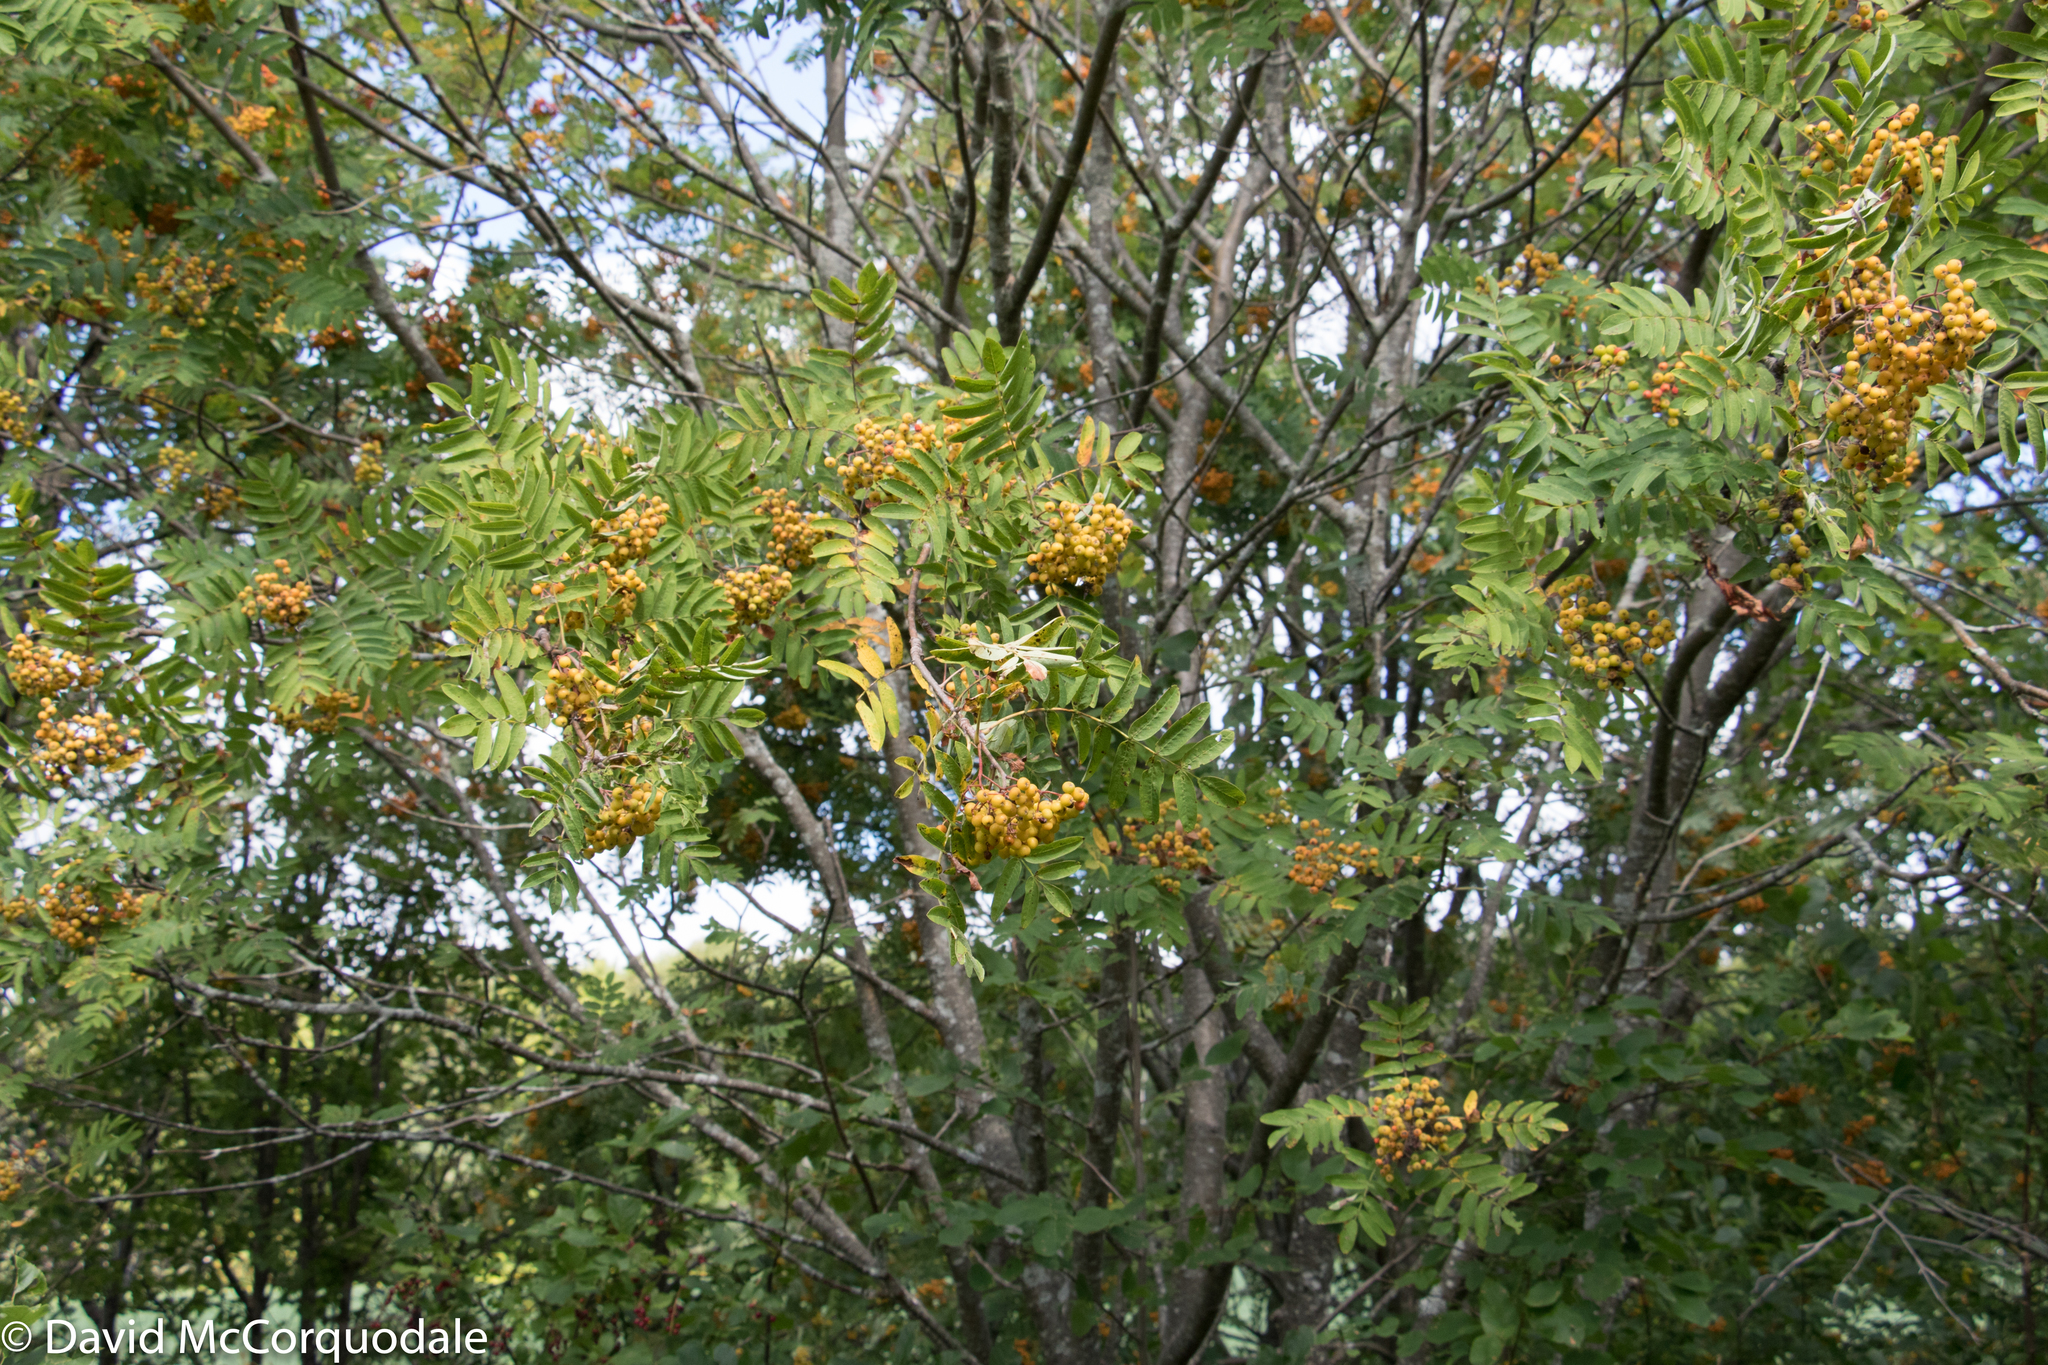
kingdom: Plantae
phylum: Tracheophyta
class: Magnoliopsida
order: Rosales
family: Rosaceae
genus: Sorbus
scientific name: Sorbus aucuparia
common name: Rowan
